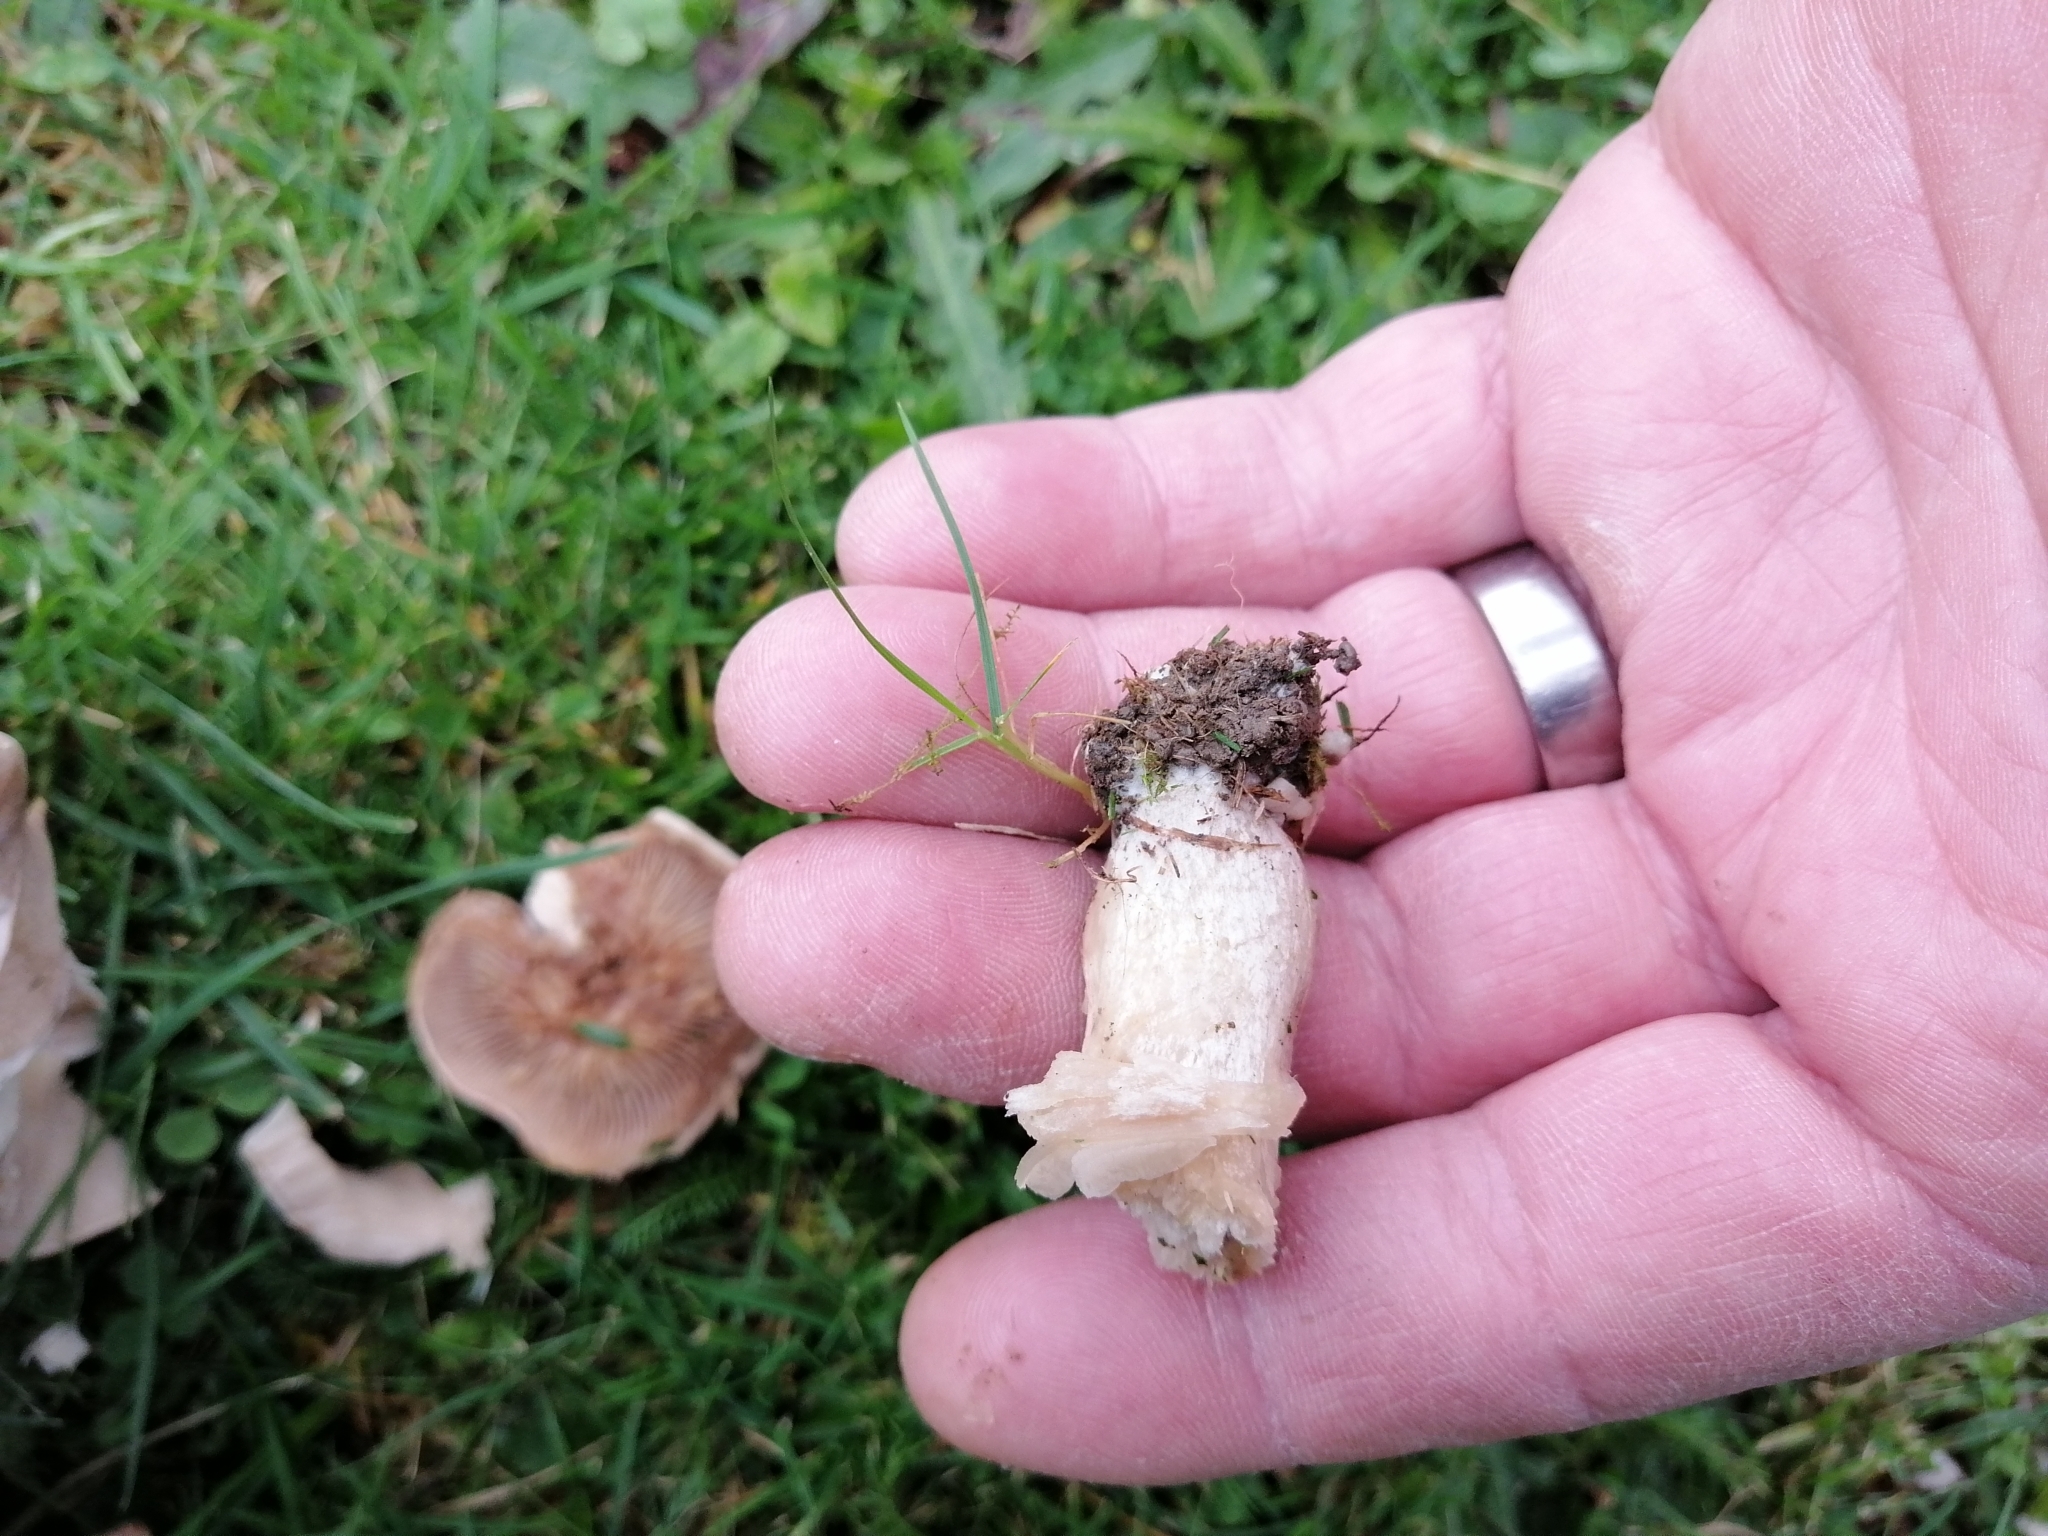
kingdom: Fungi
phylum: Basidiomycota
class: Agaricomycetes
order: Agaricales
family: Tricholomataceae
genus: Lepista
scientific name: Lepista luscina
